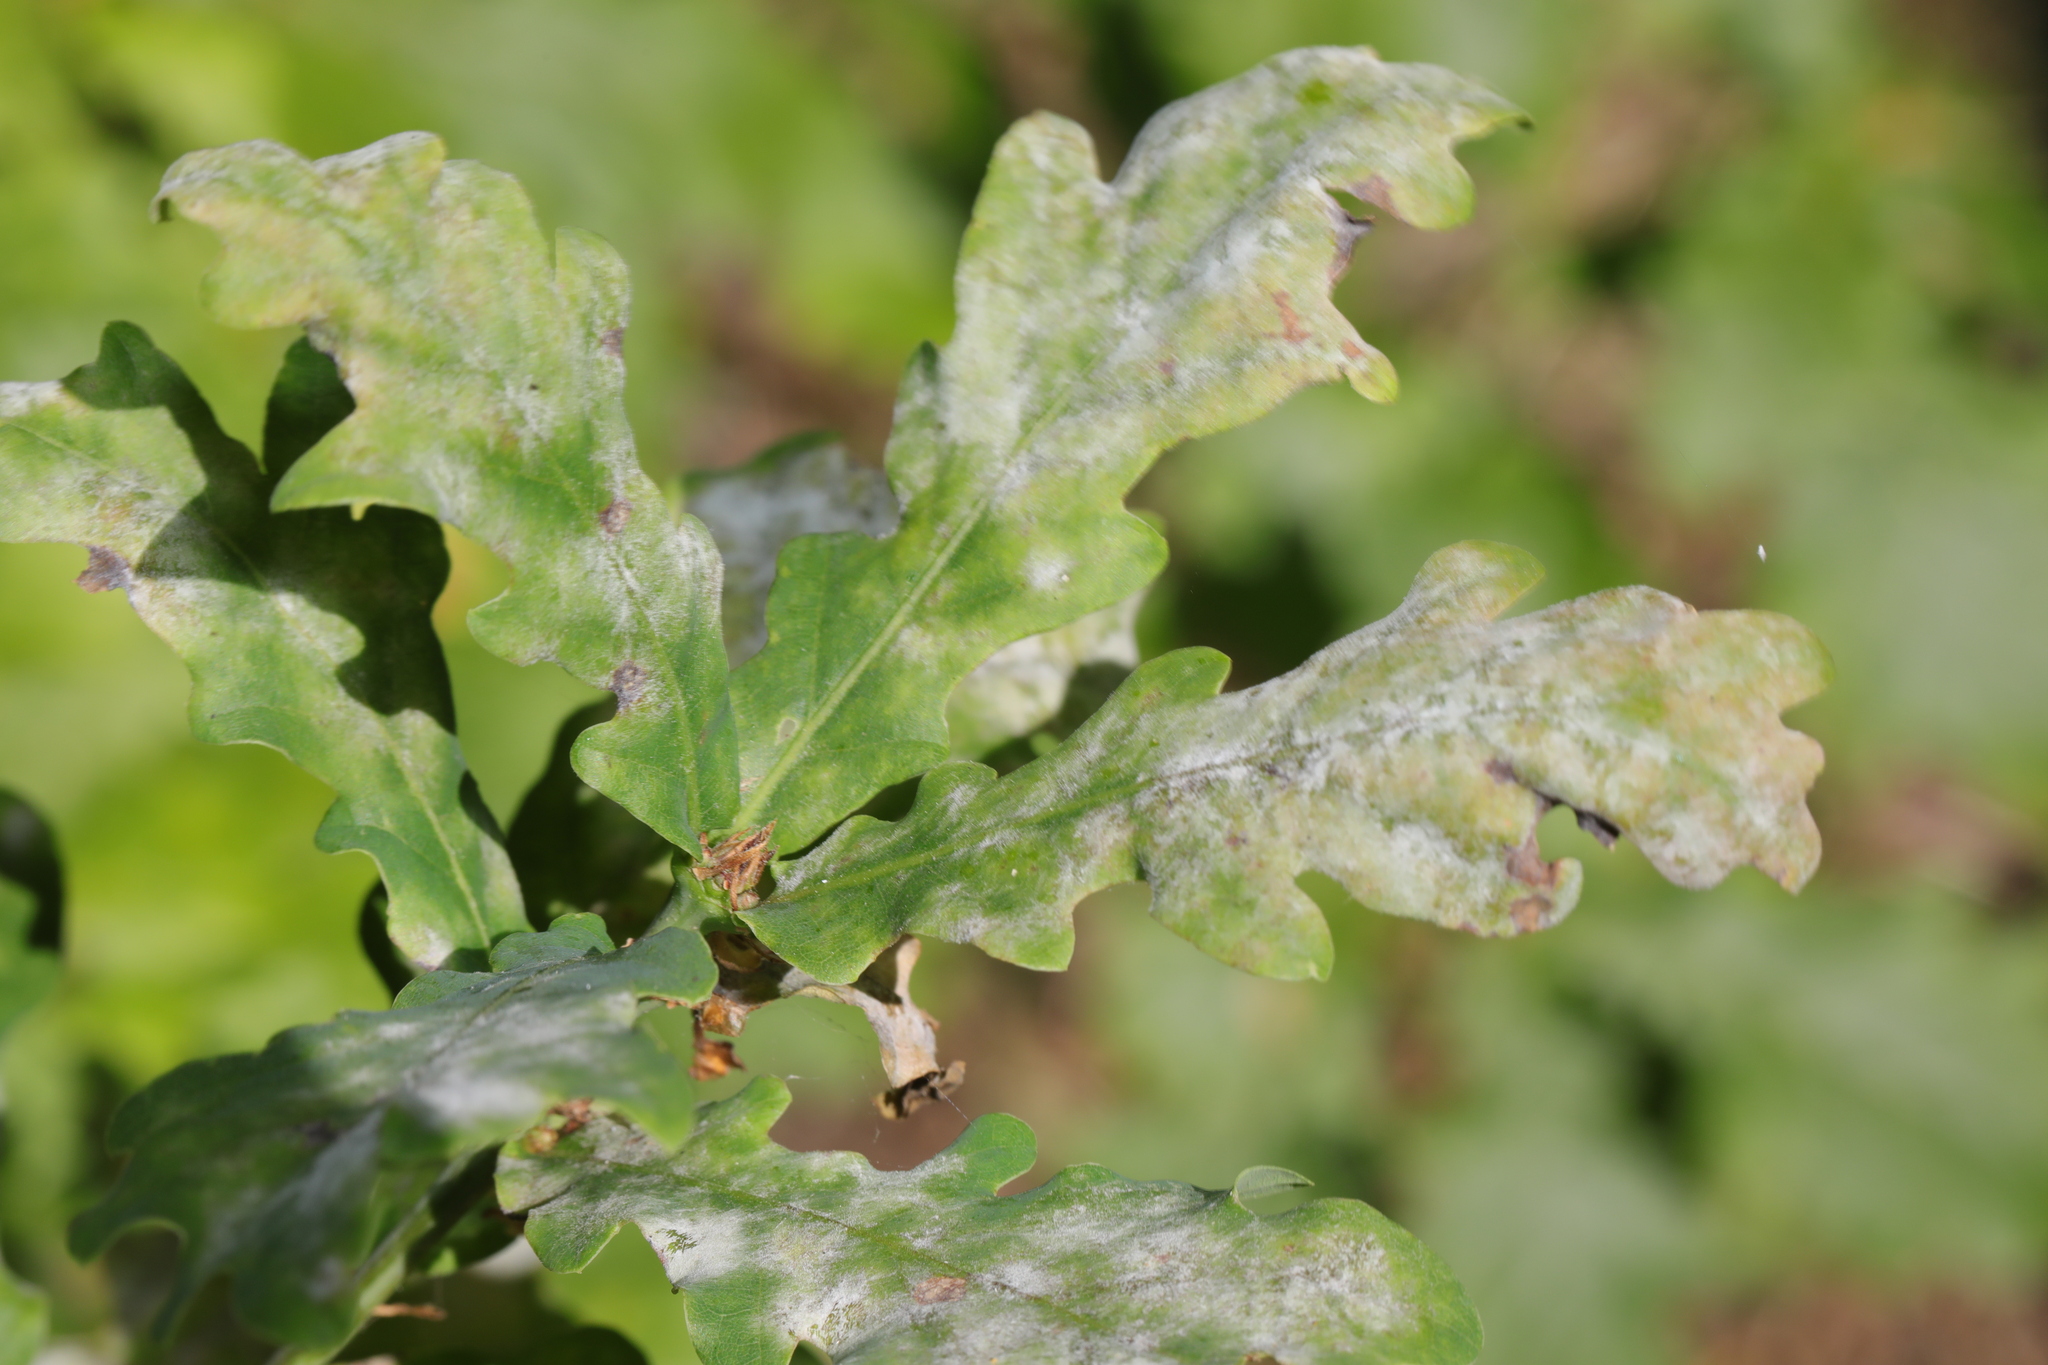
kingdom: Fungi
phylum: Ascomycota
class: Leotiomycetes
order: Helotiales
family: Erysiphaceae
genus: Erysiphe
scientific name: Erysiphe alphitoides
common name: Oak mildew
